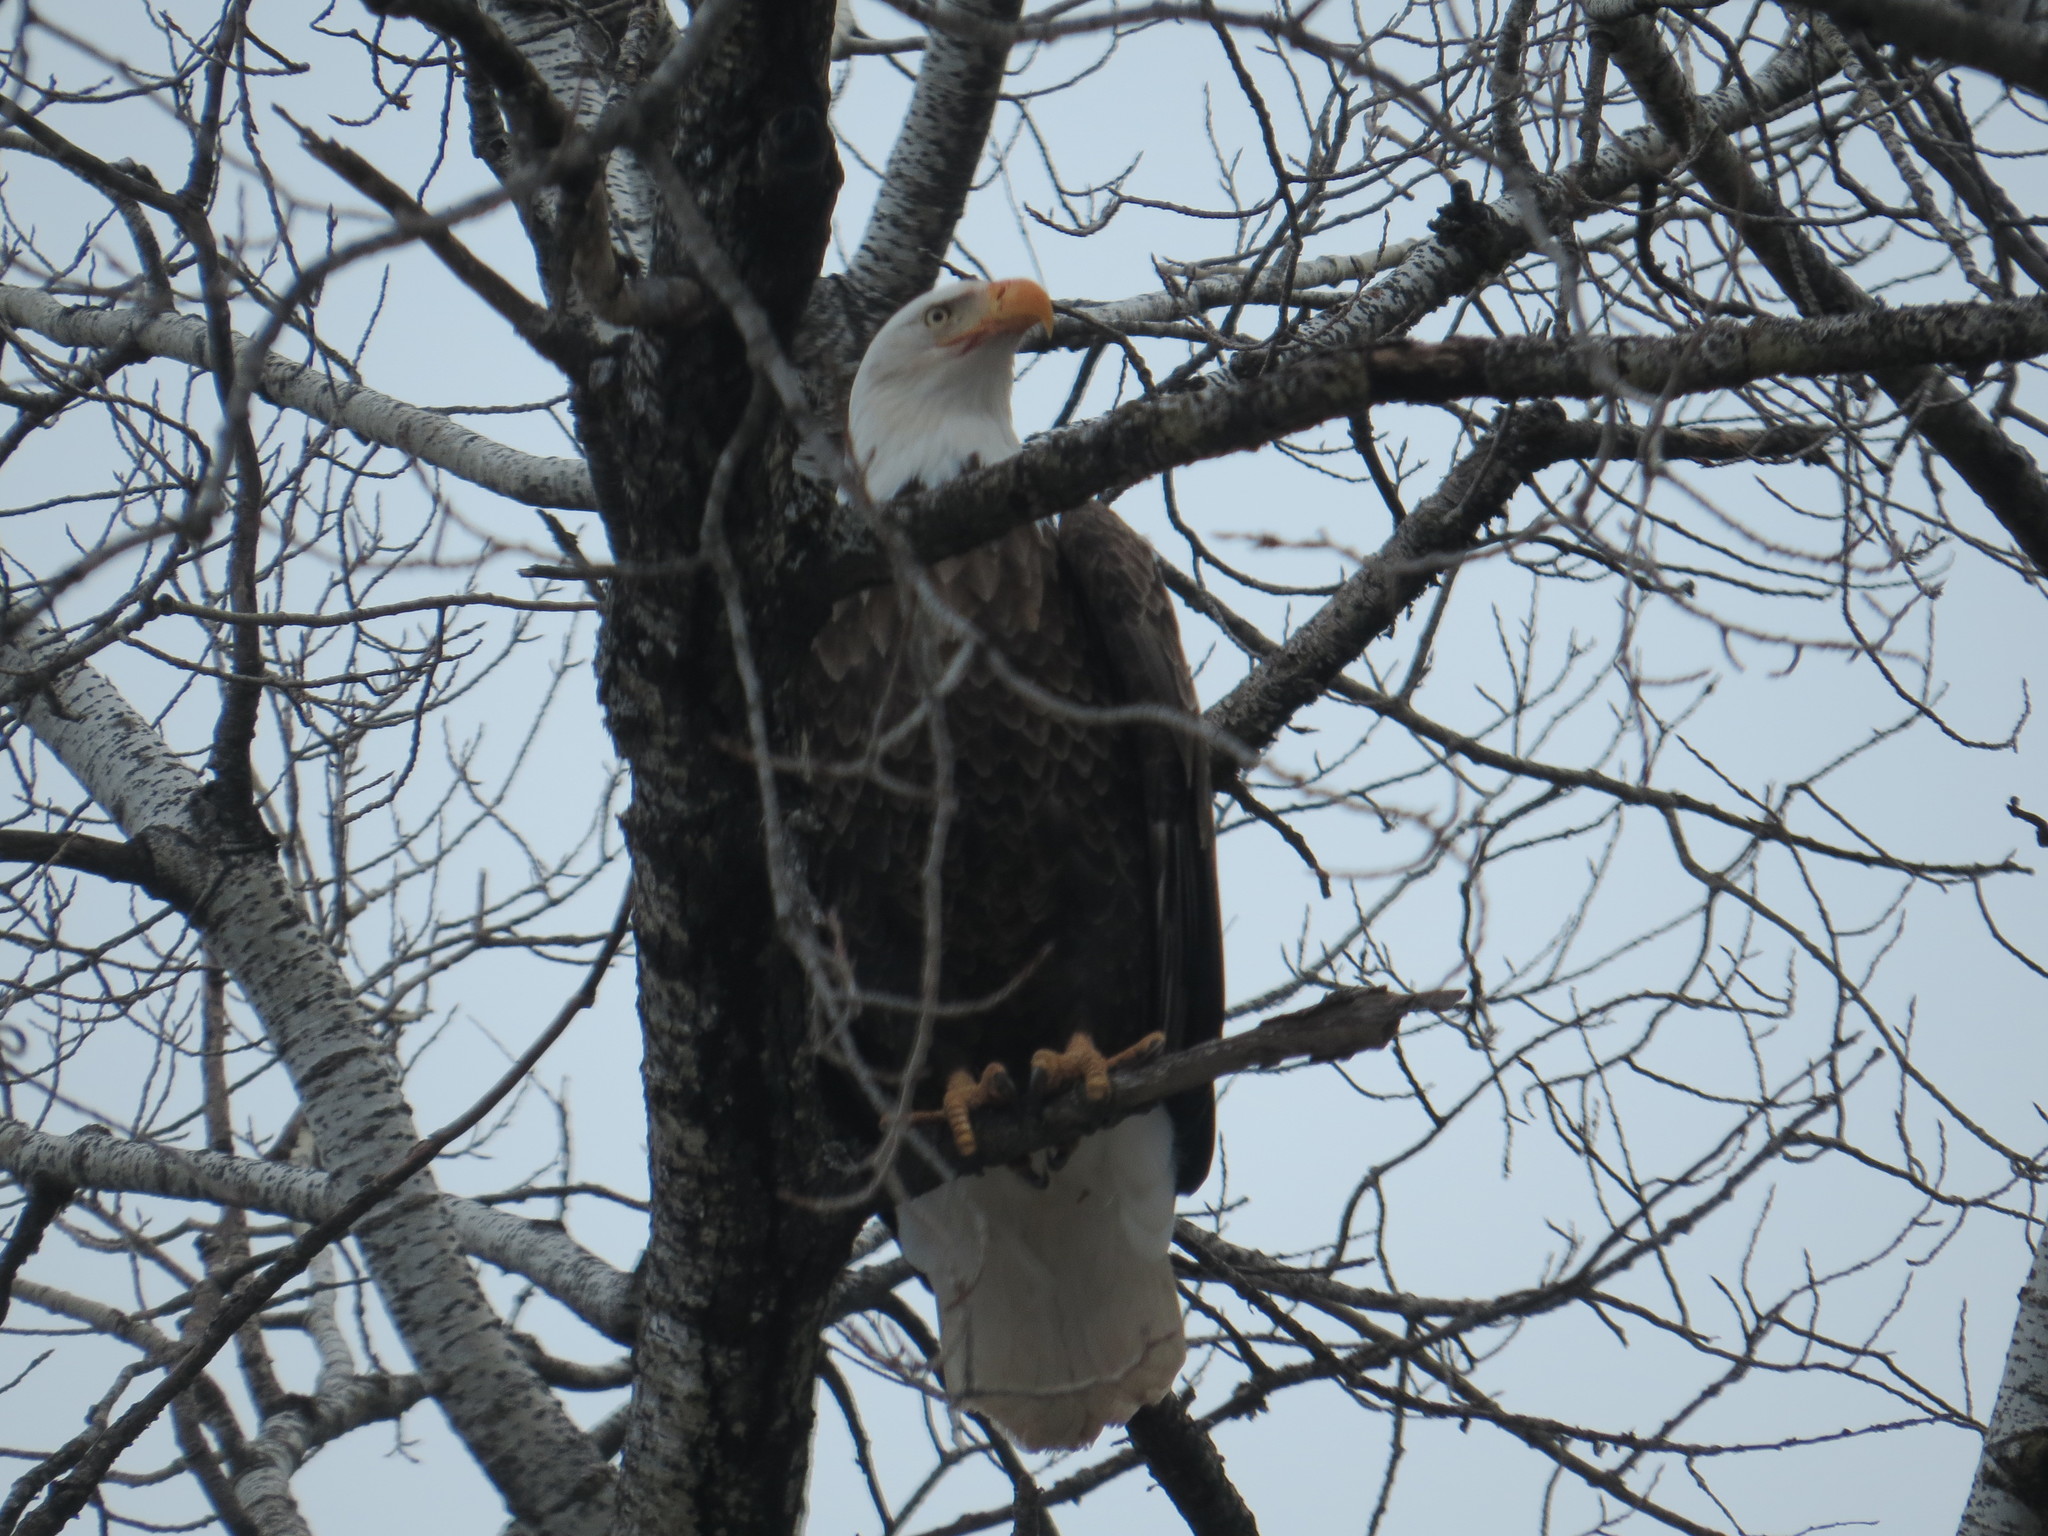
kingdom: Animalia
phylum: Chordata
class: Aves
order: Accipitriformes
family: Accipitridae
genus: Haliaeetus
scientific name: Haliaeetus leucocephalus
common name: Bald eagle
